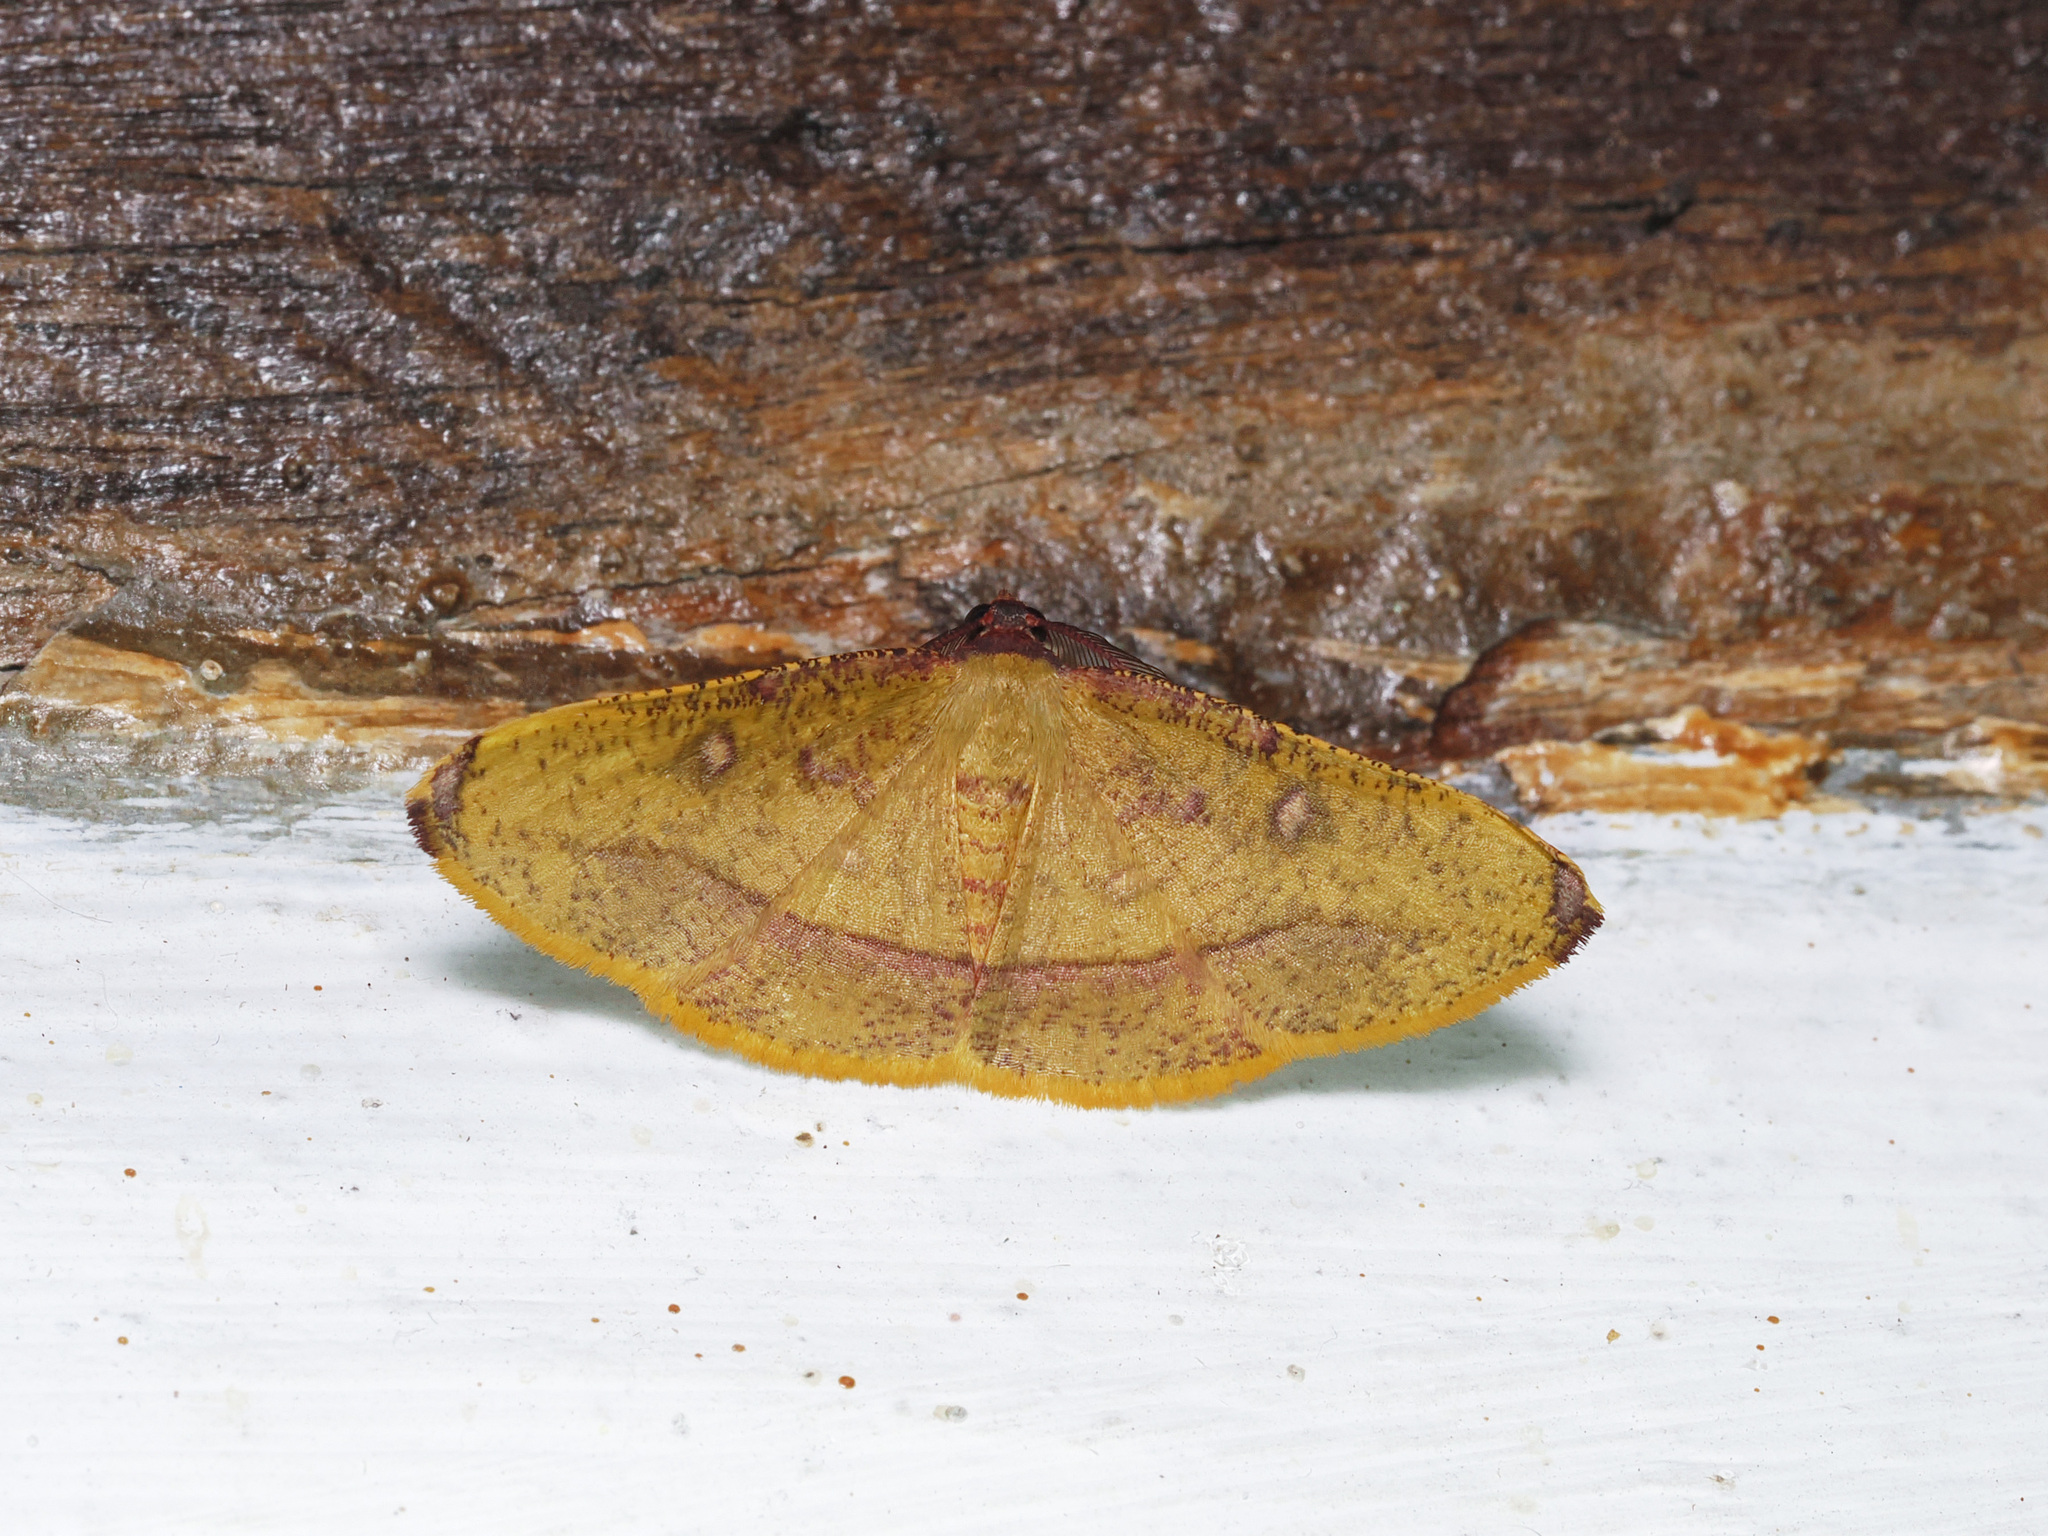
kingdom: Animalia
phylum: Arthropoda
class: Insecta
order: Lepidoptera
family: Geometridae
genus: Heterolocha
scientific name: Heterolocha pyreniata
